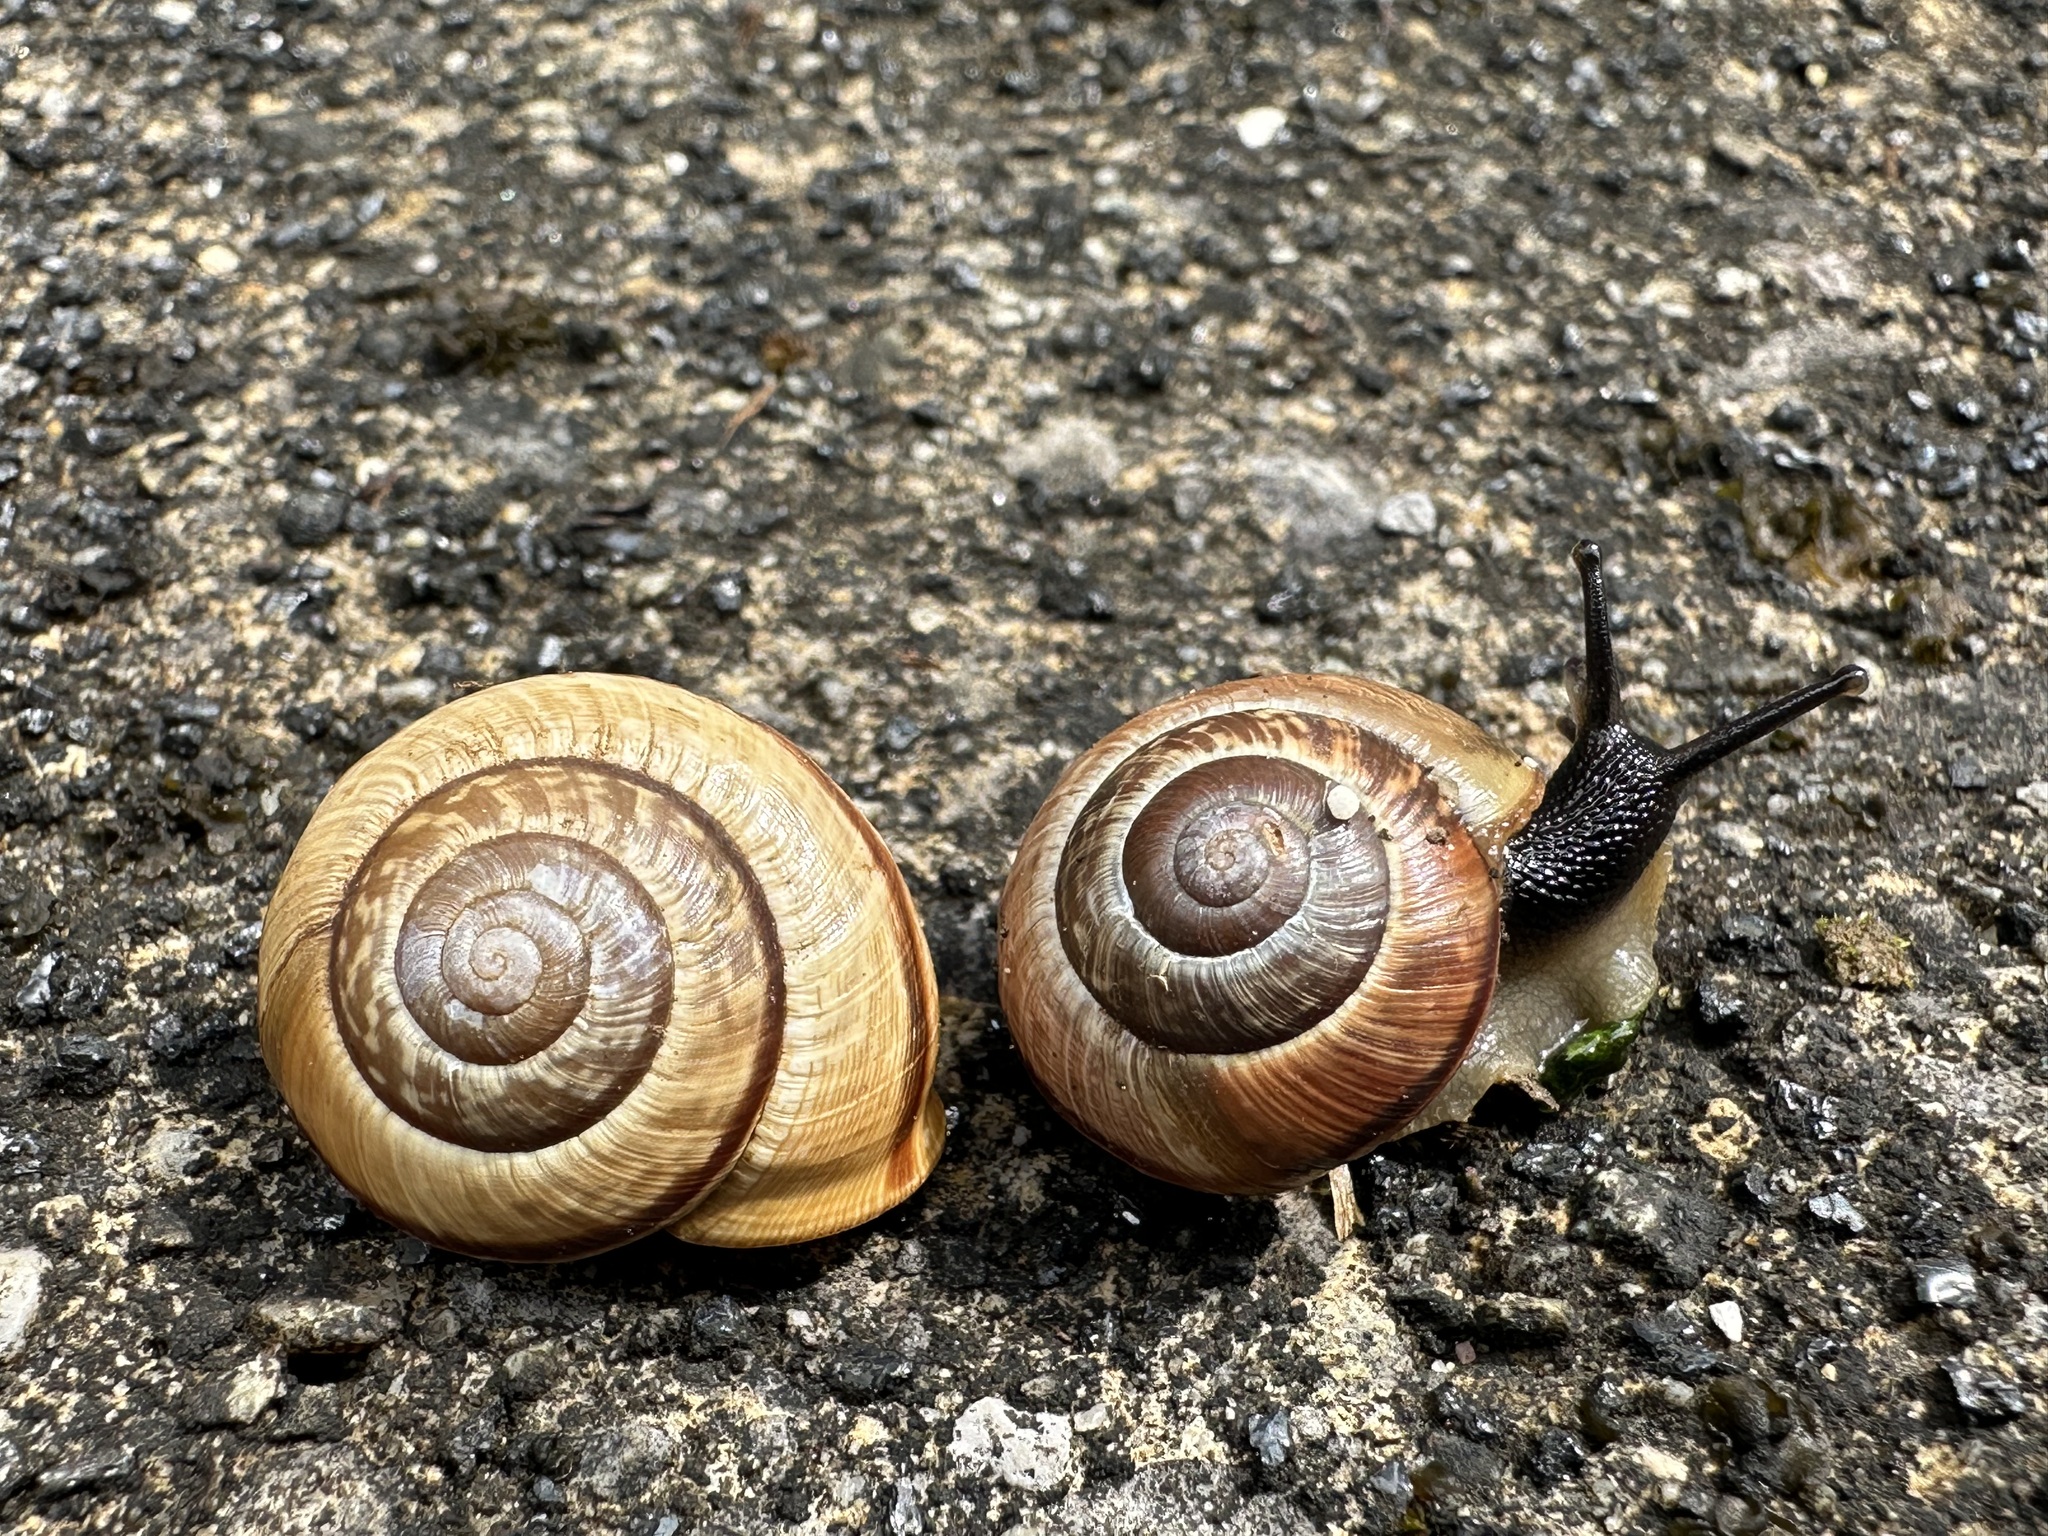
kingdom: Animalia
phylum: Mollusca
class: Gastropoda
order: Stylommatophora
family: Helicidae
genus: Arianta
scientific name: Arianta arbustorum
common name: Copse snail
